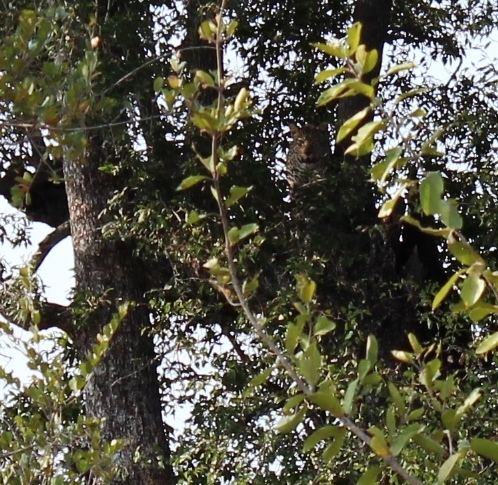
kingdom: Animalia
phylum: Chordata
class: Mammalia
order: Carnivora
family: Felidae
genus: Panthera
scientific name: Panthera pardus
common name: Leopard
